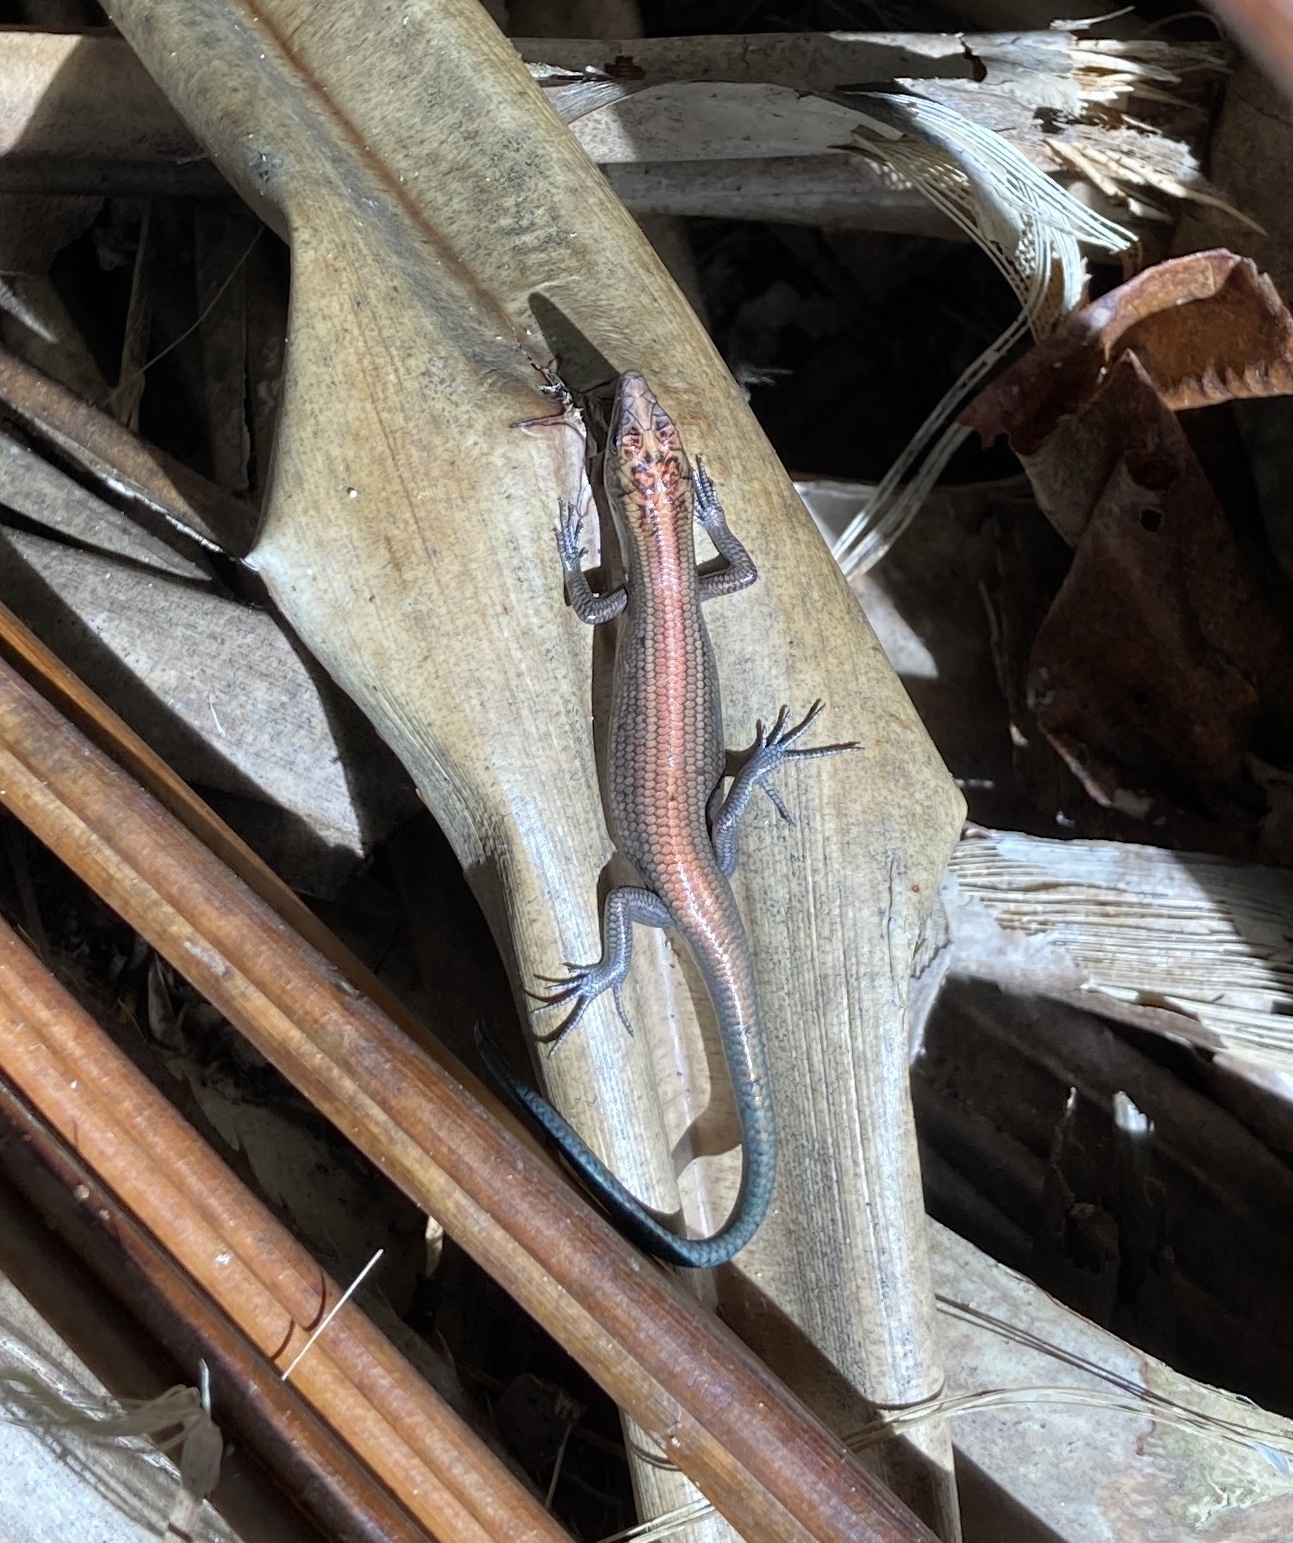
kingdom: Animalia
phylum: Chordata
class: Squamata
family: Scincidae
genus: Emoia
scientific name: Emoia impar
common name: Azure-tailed skink
